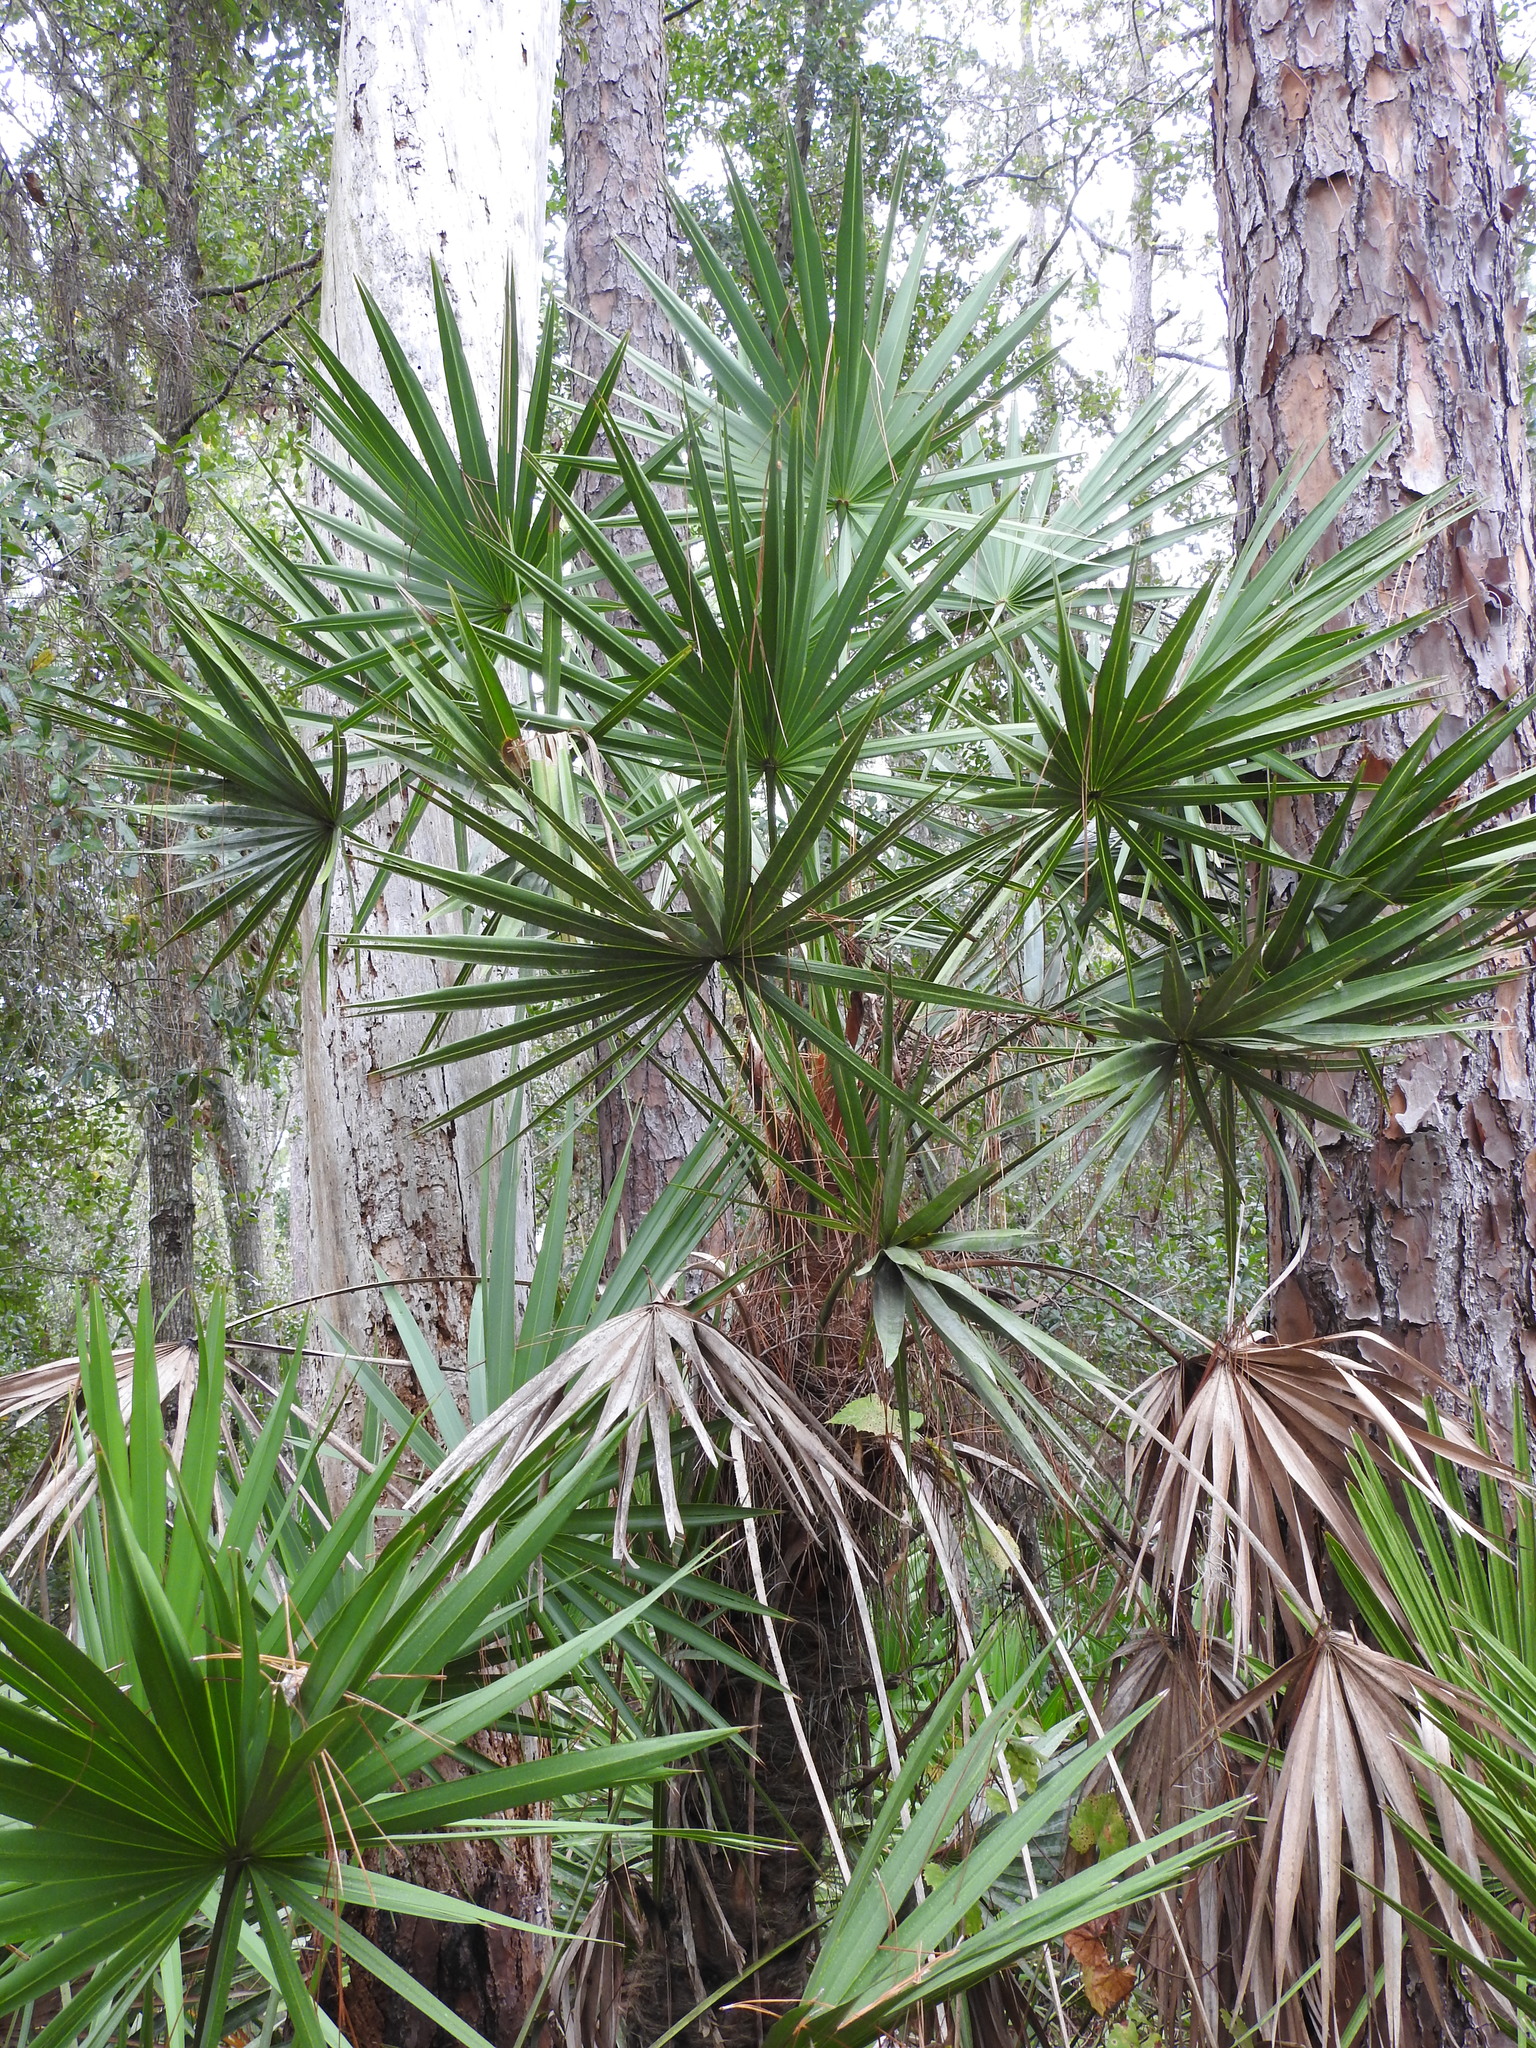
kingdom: Plantae
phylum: Tracheophyta
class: Liliopsida
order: Arecales
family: Arecaceae
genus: Serenoa
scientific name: Serenoa repens
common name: Saw-palmetto
